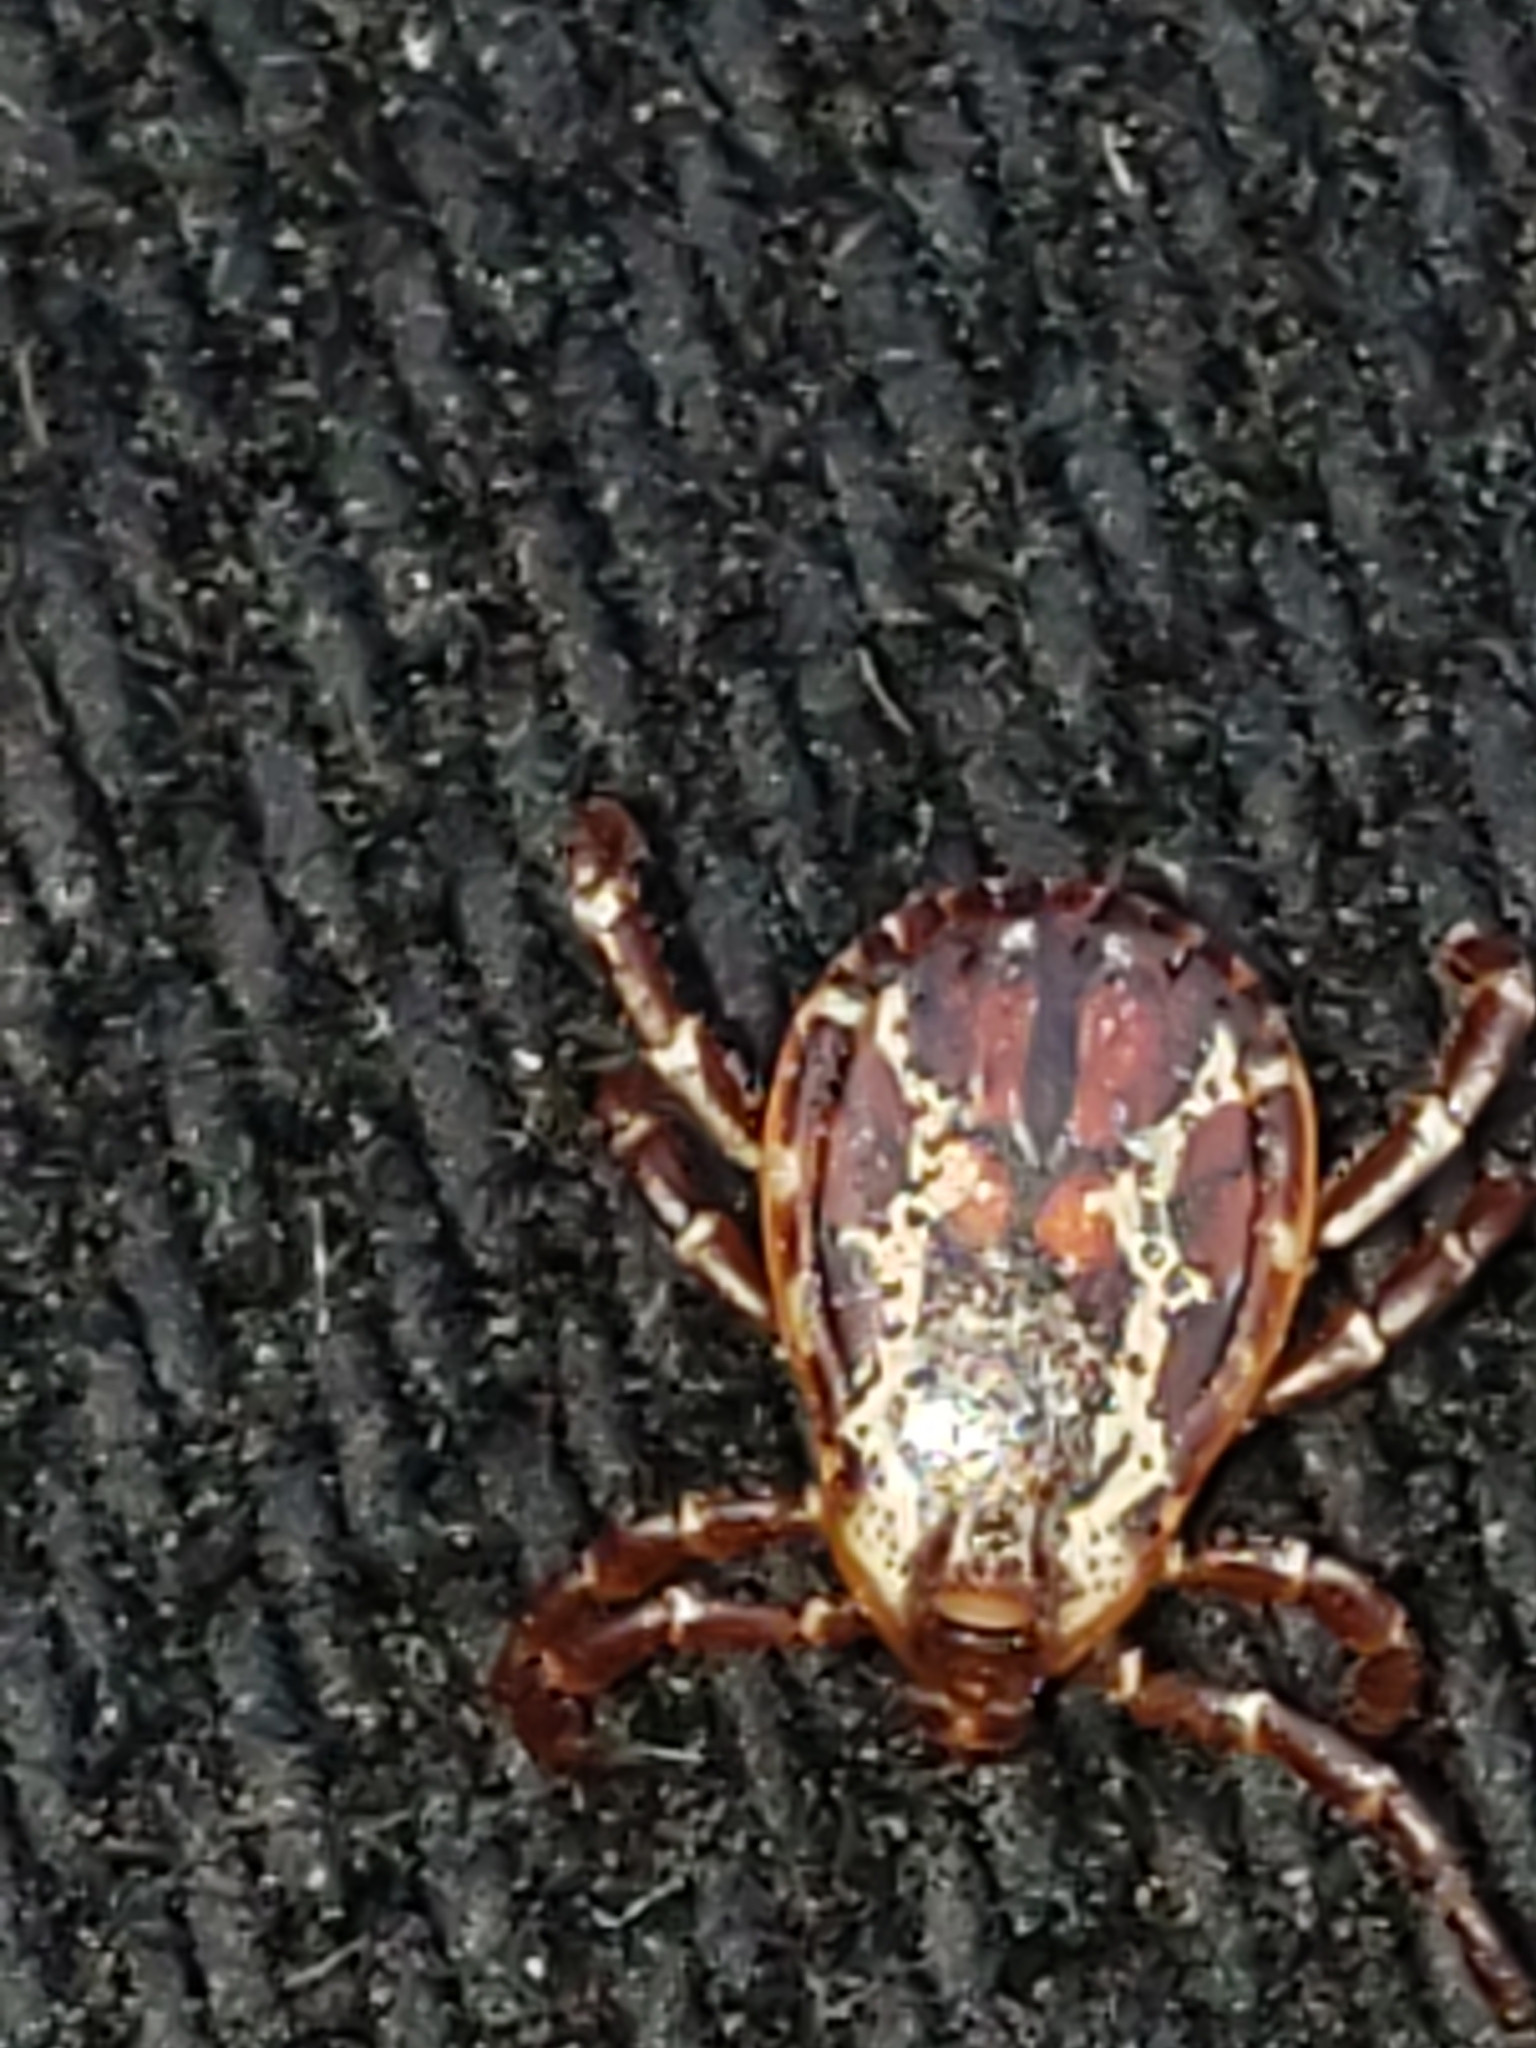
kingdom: Animalia
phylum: Arthropoda
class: Arachnida
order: Ixodida
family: Ixodidae
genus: Dermacentor
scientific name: Dermacentor variabilis
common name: American dog tick
